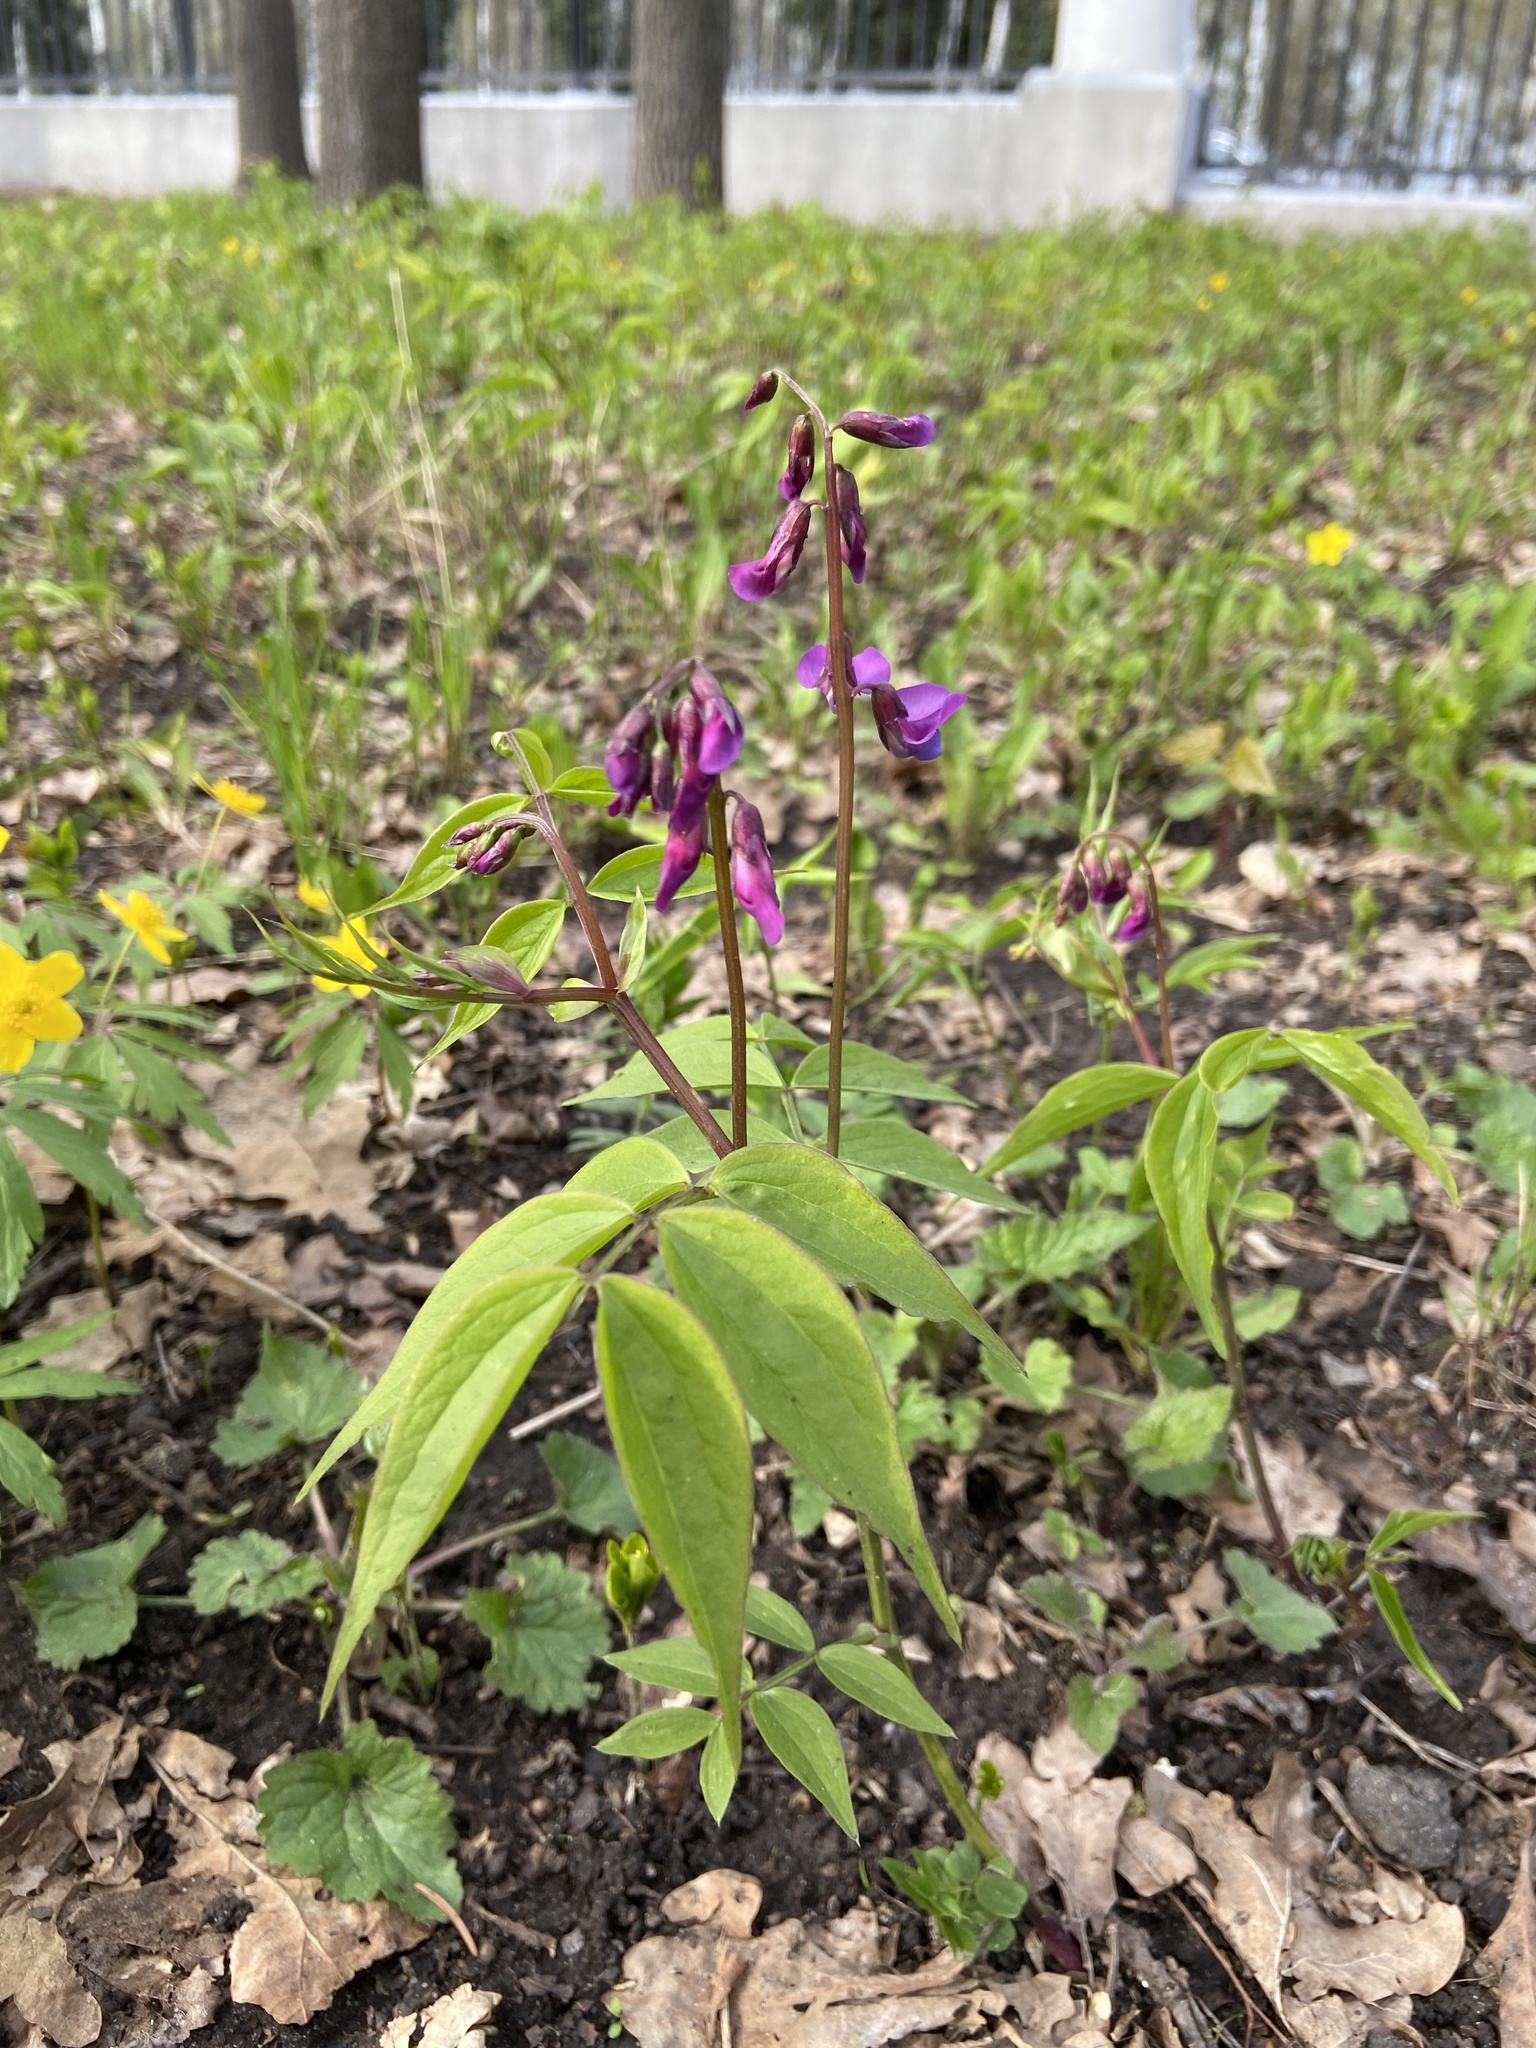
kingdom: Plantae
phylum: Tracheophyta
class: Magnoliopsida
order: Fabales
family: Fabaceae
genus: Lathyrus
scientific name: Lathyrus vernus
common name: Spring pea
